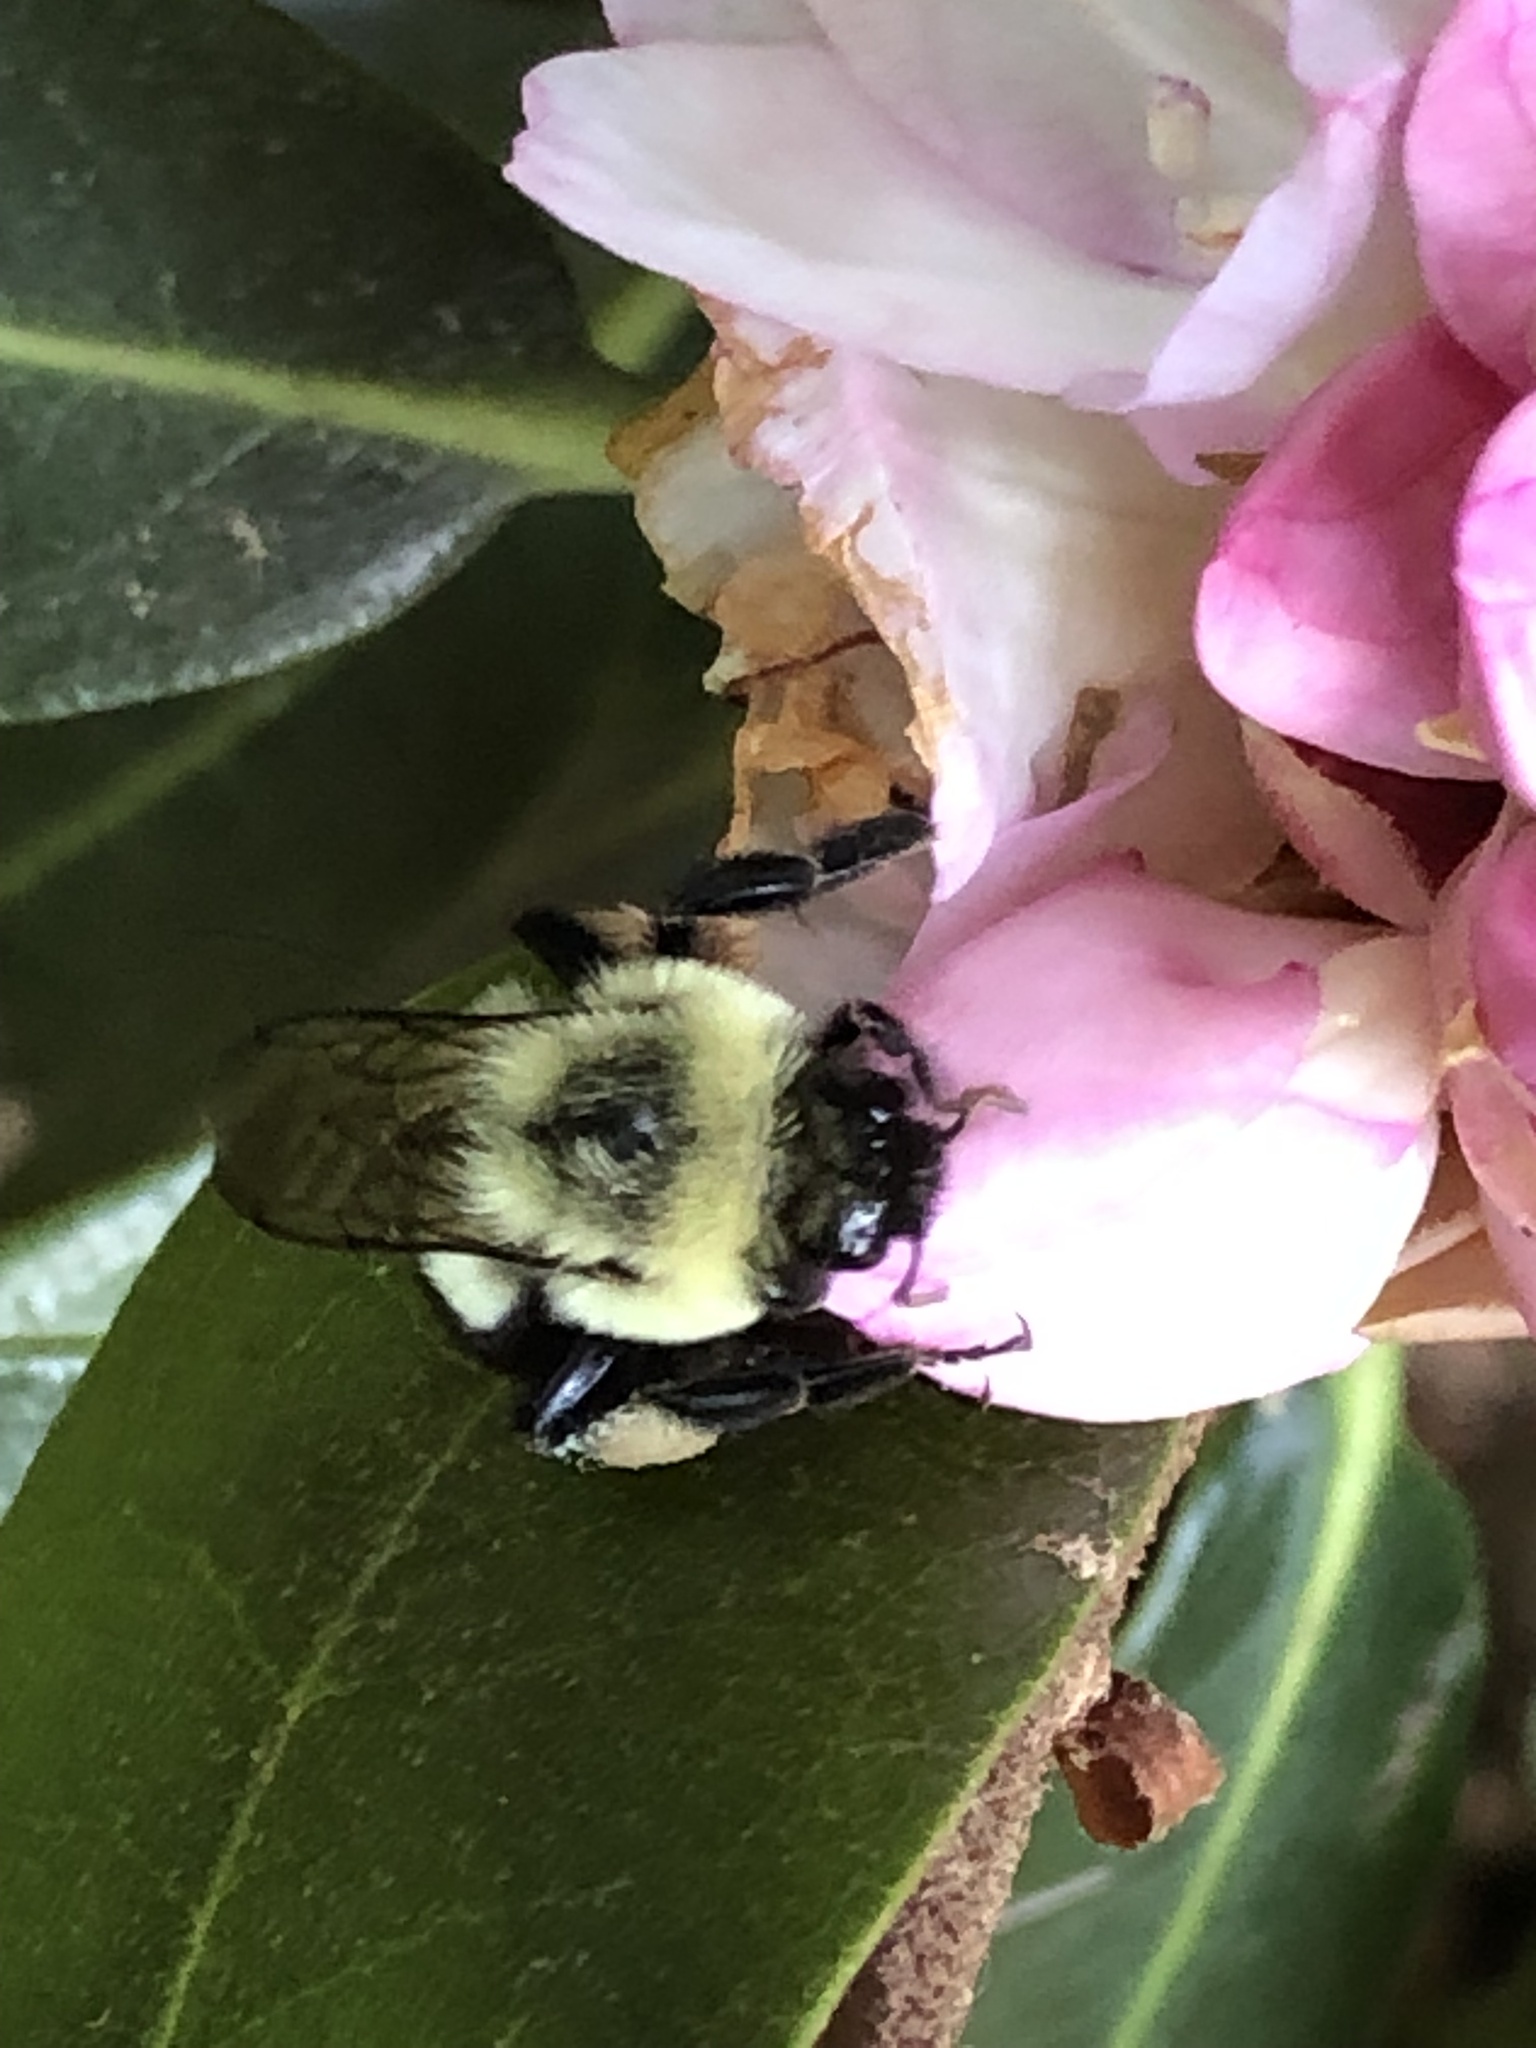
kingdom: Animalia
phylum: Arthropoda
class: Insecta
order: Hymenoptera
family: Apidae
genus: Bombus
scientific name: Bombus impatiens
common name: Common eastern bumble bee
